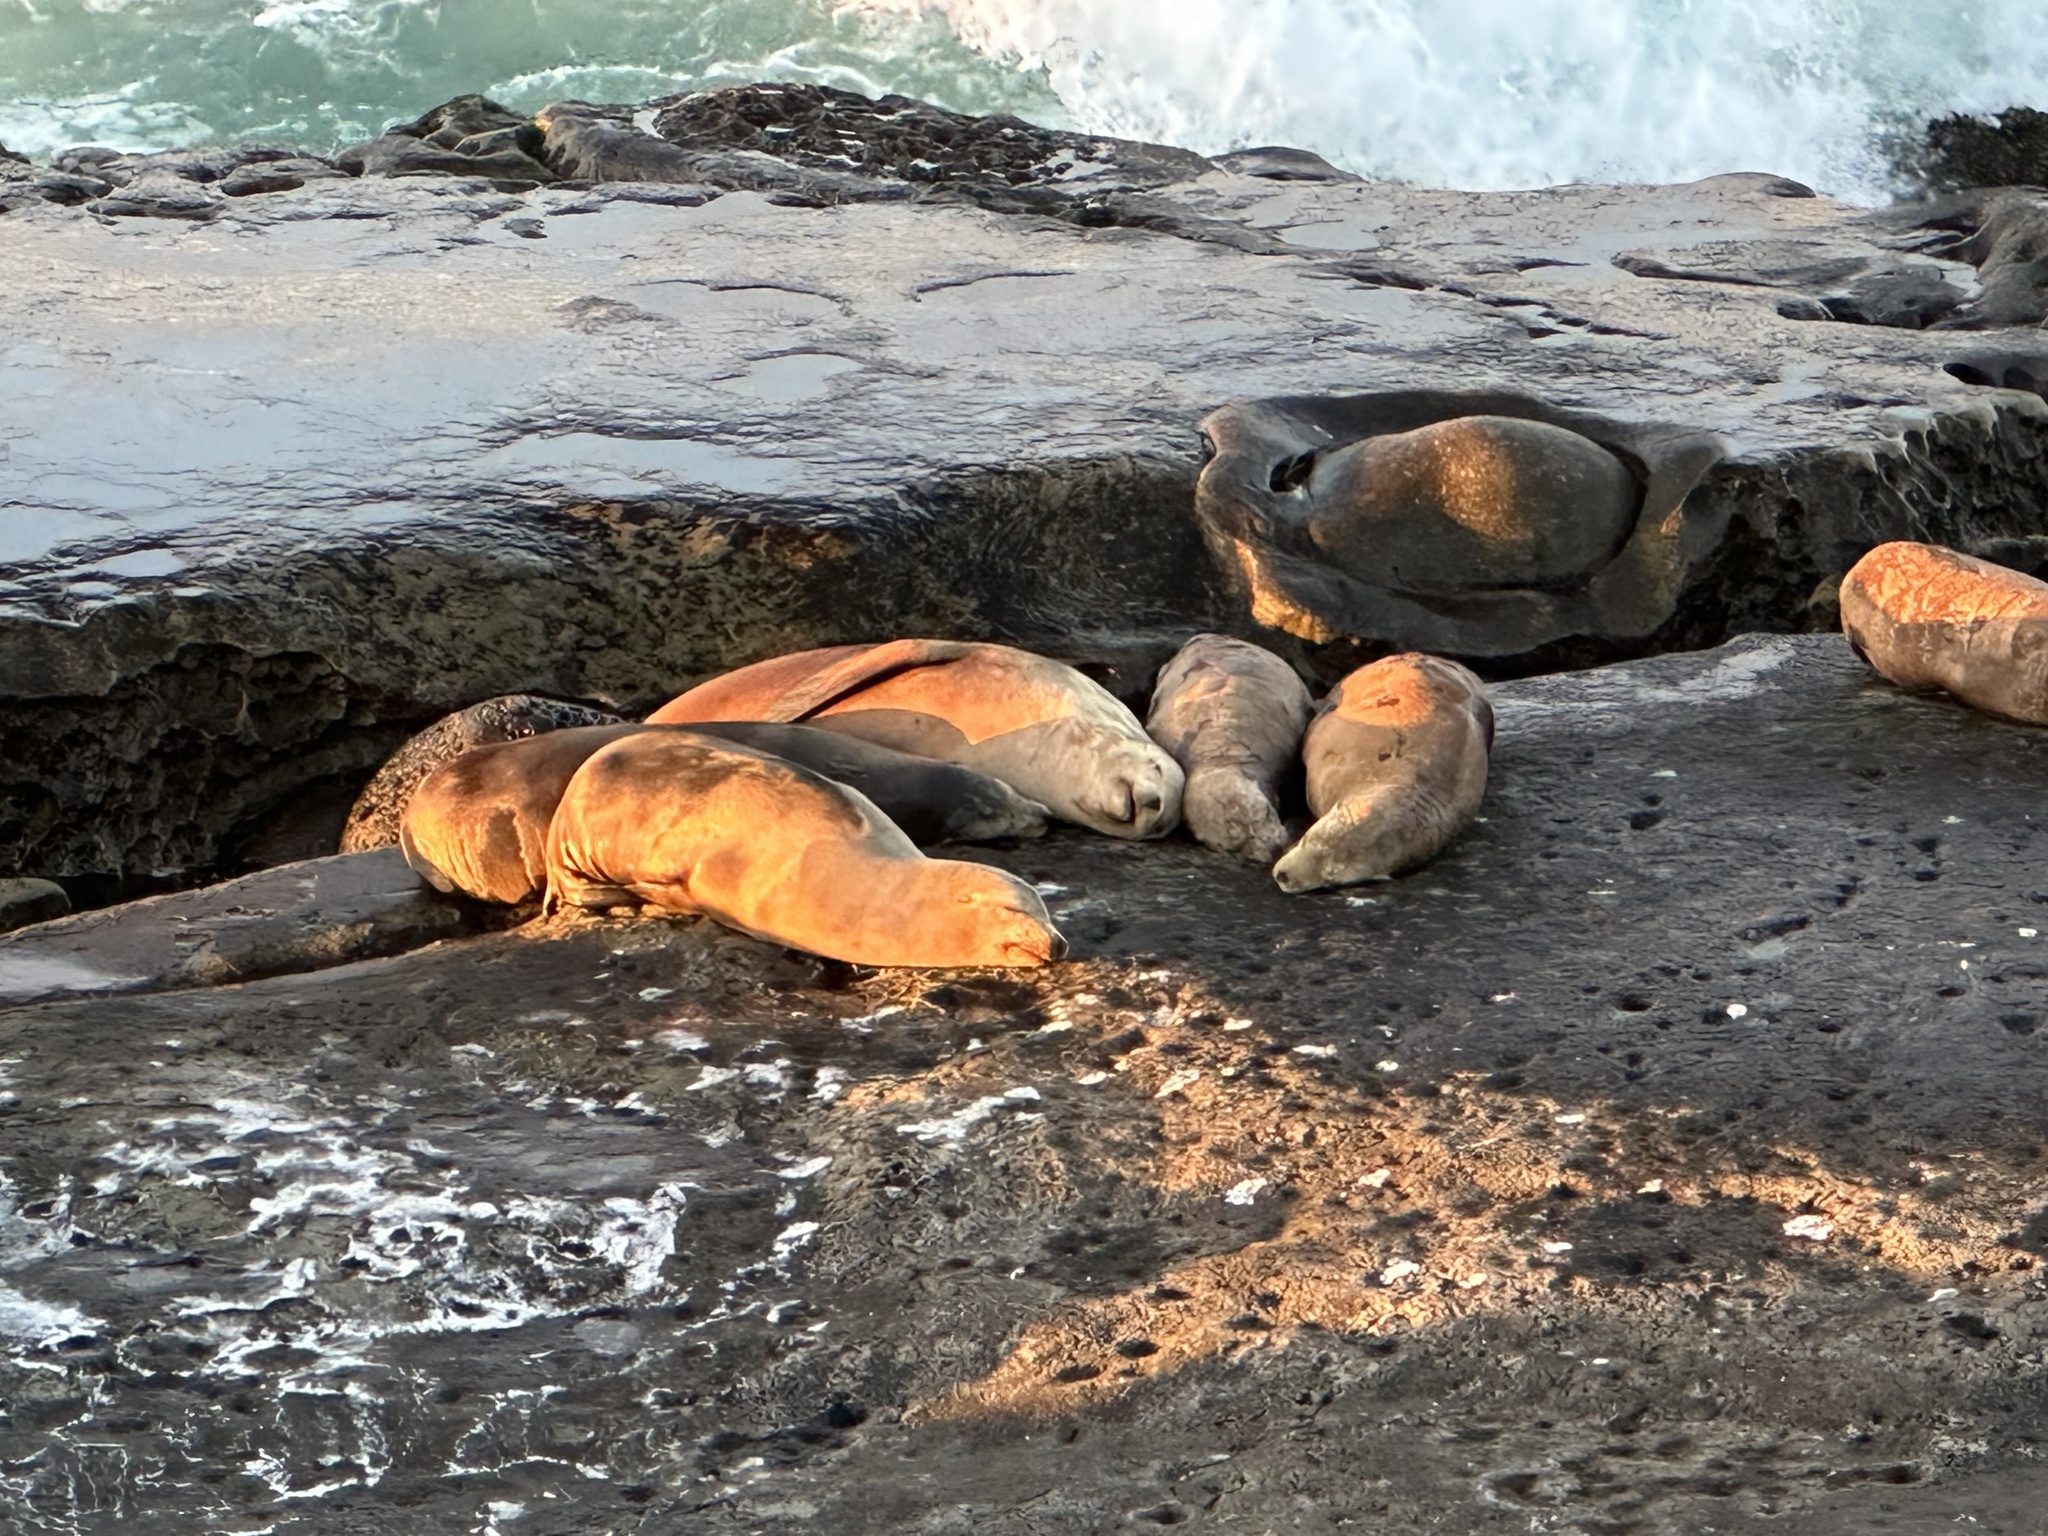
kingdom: Animalia
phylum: Chordata
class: Mammalia
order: Carnivora
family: Otariidae
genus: Zalophus
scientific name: Zalophus californianus
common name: California sea lion
